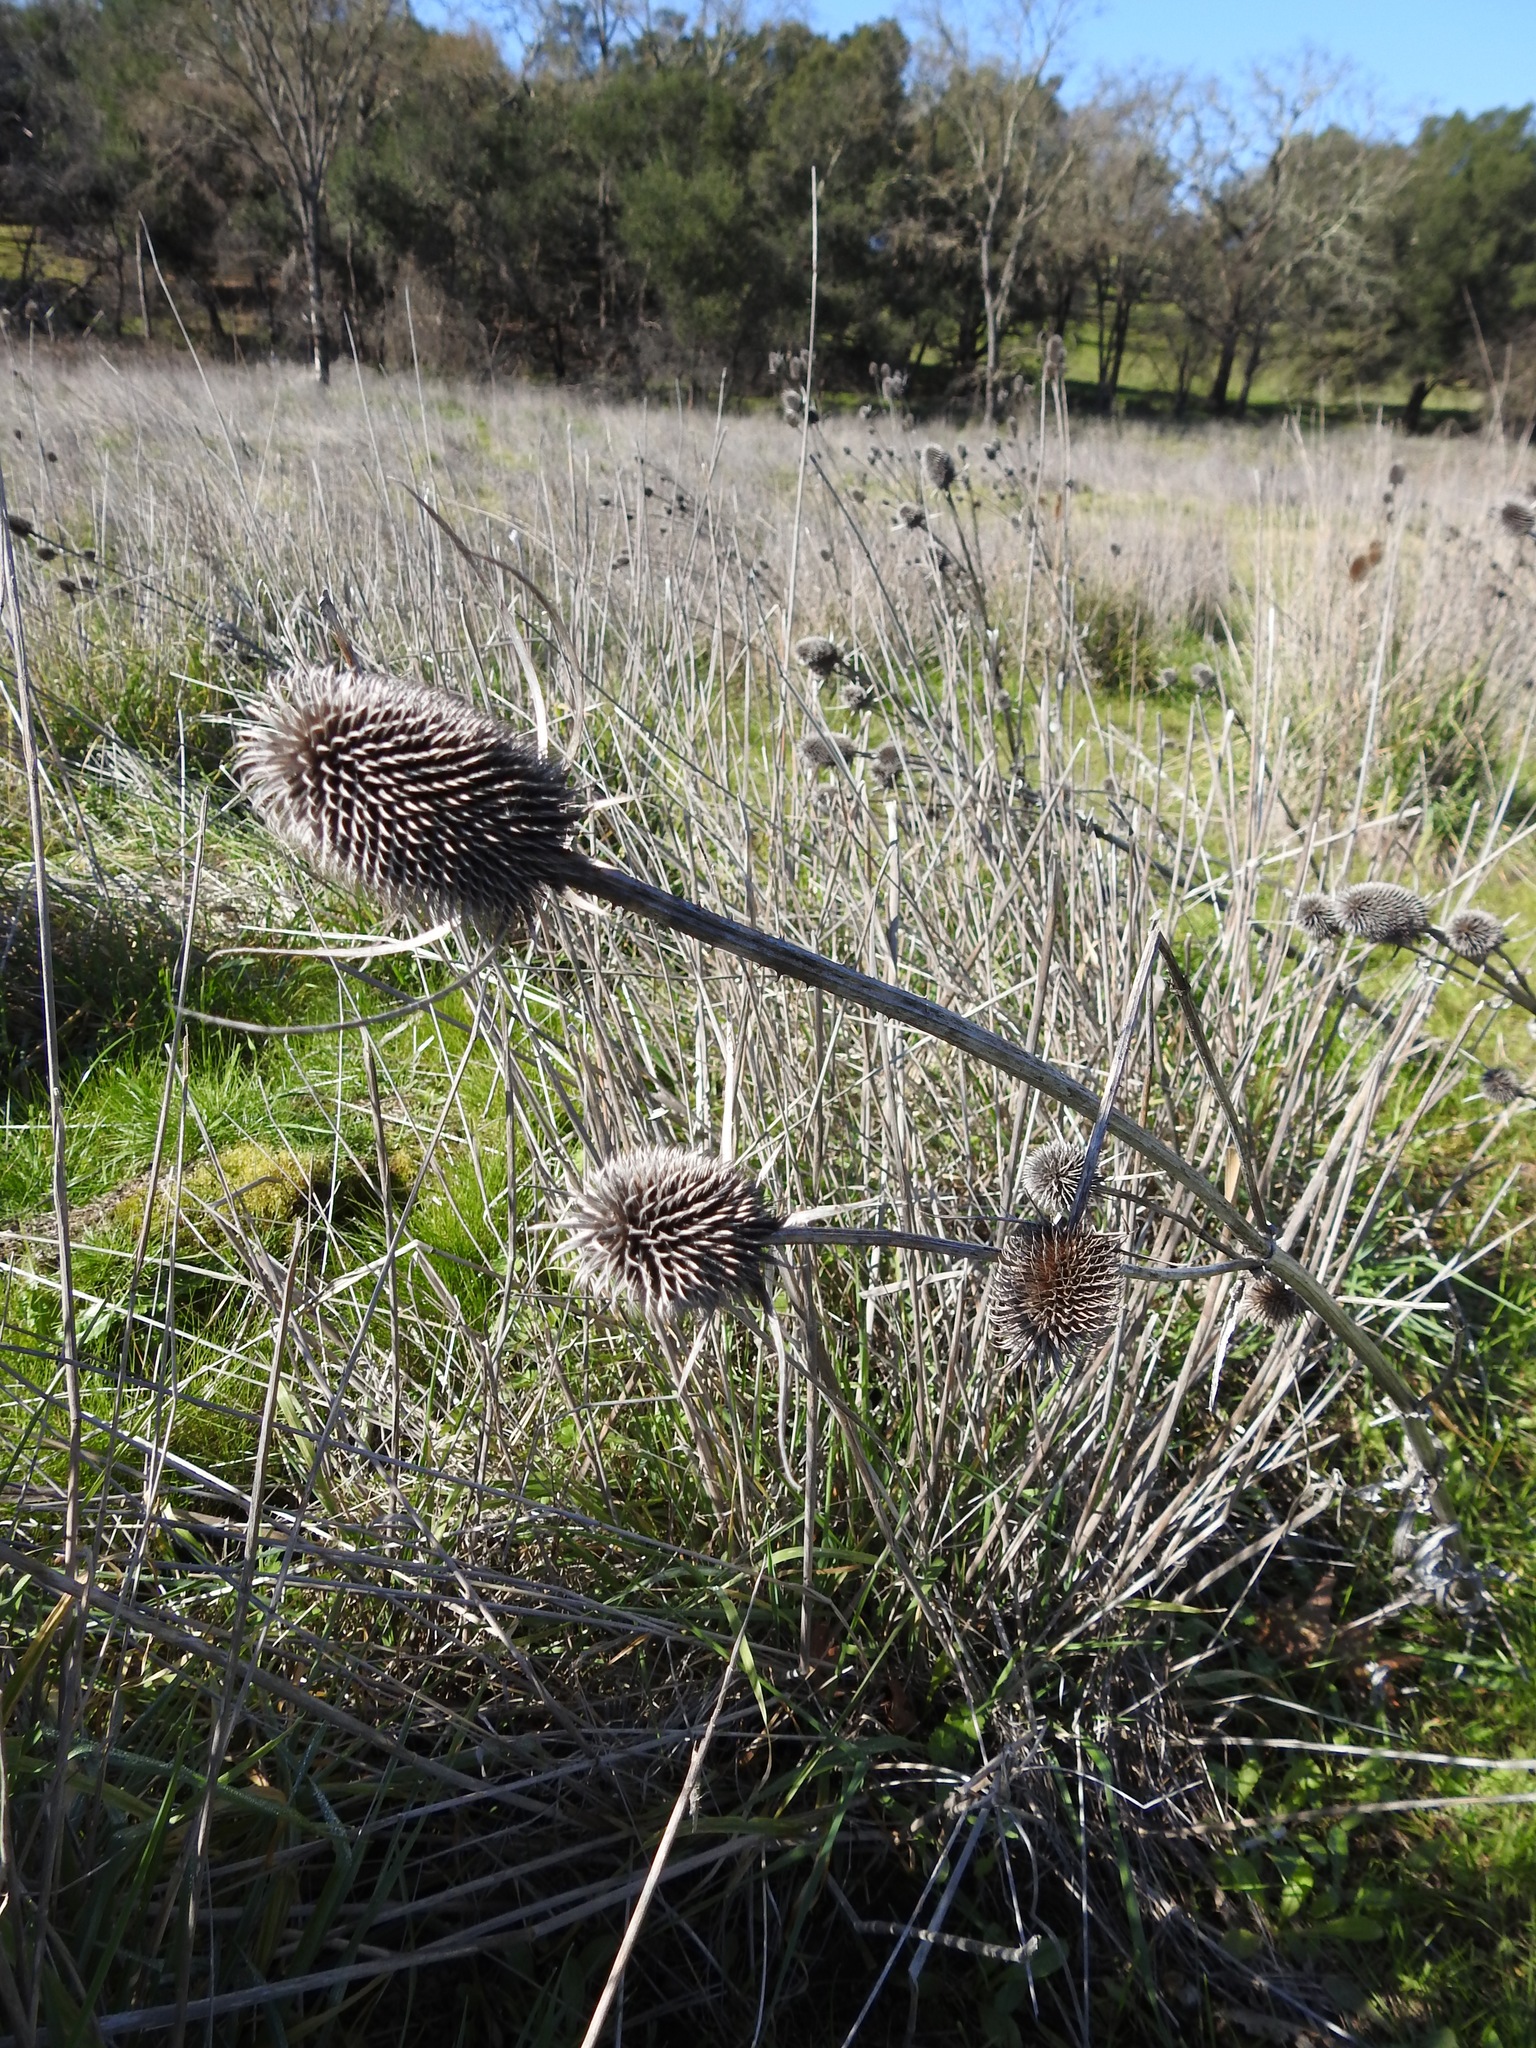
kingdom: Plantae
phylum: Tracheophyta
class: Magnoliopsida
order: Dipsacales
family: Caprifoliaceae
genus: Dipsacus
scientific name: Dipsacus sativus
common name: Fuller's teasel
